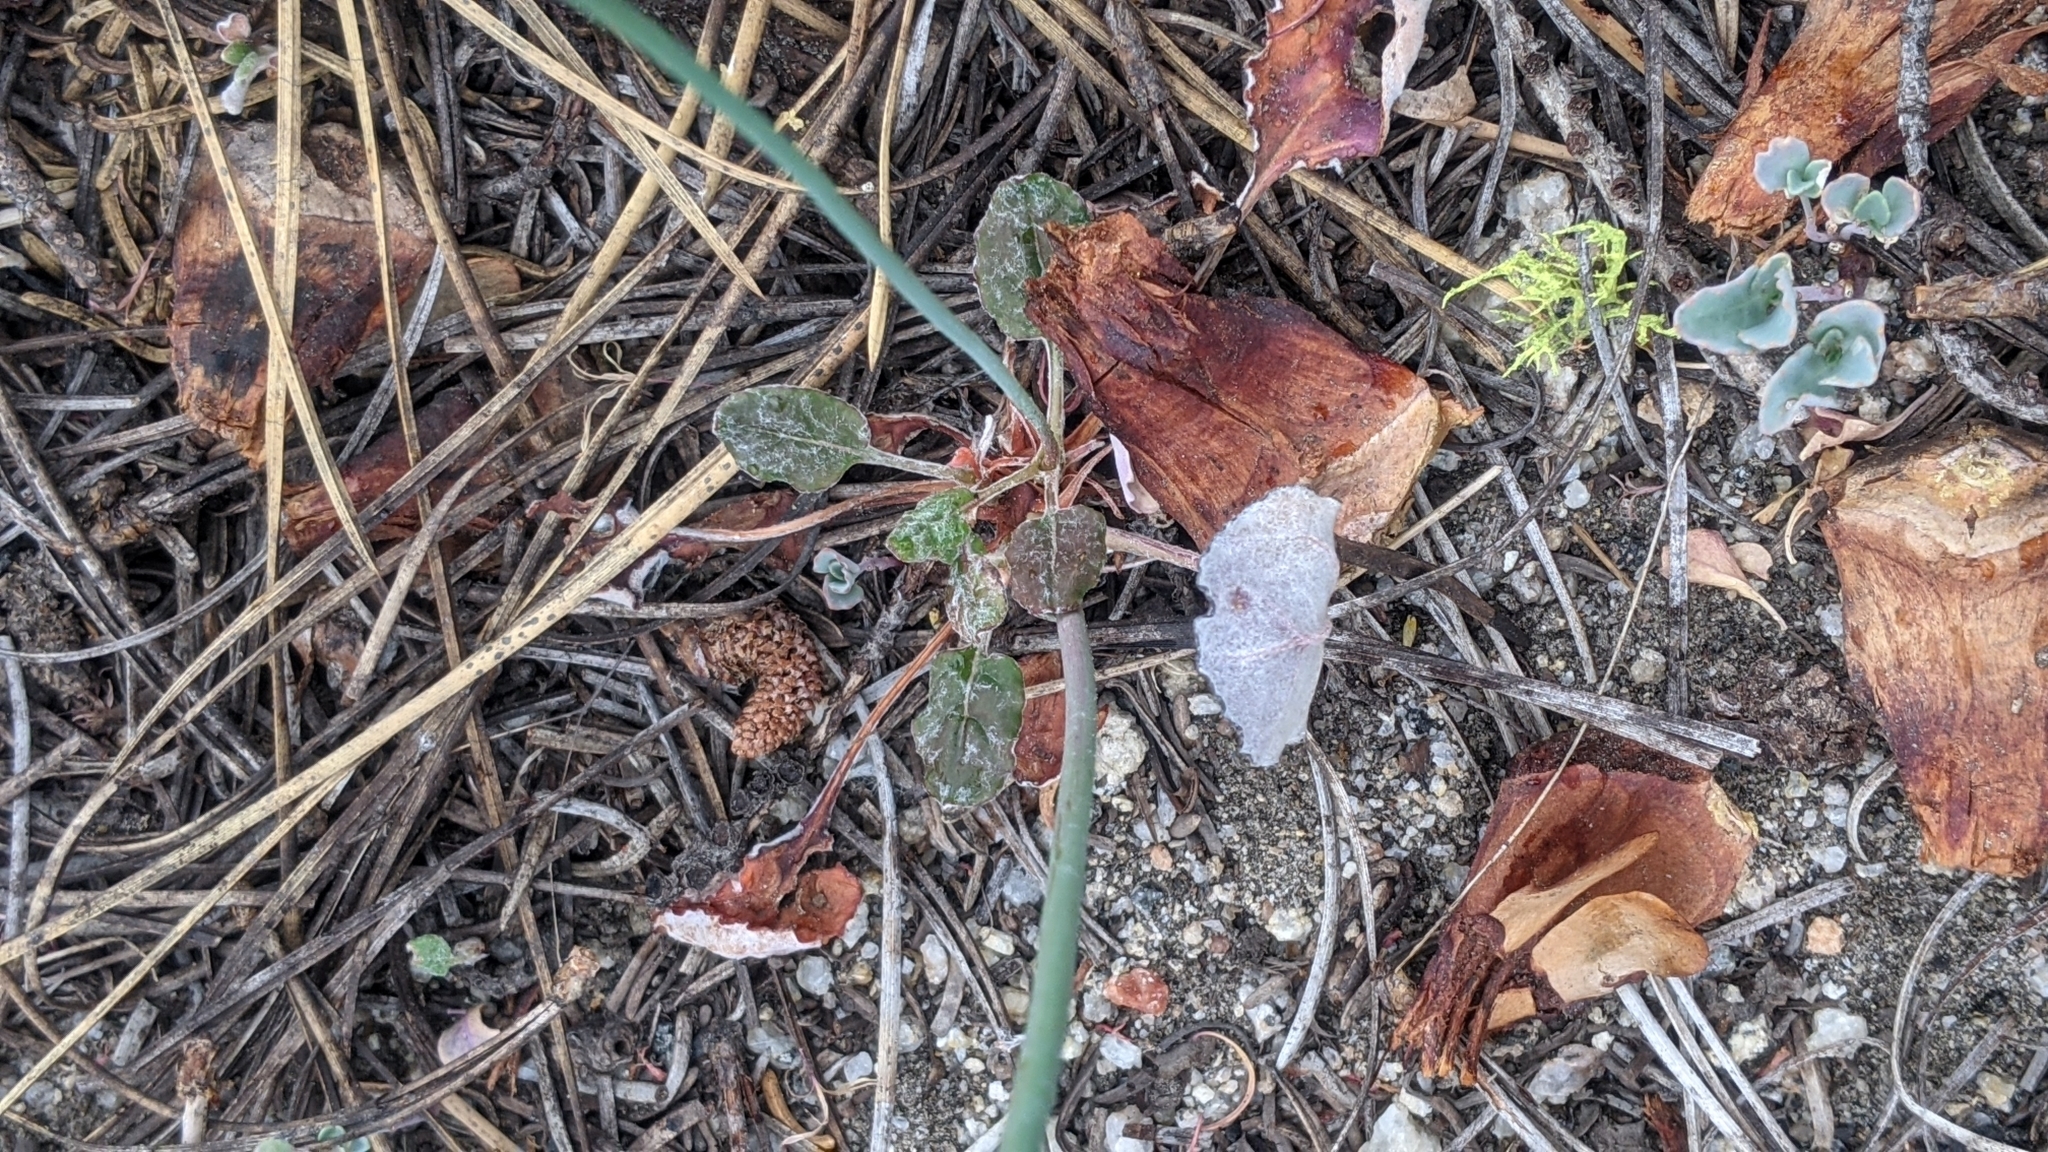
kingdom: Plantae
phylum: Tracheophyta
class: Magnoliopsida
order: Caryophyllales
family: Polygonaceae
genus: Eriogonum
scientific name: Eriogonum nudum
